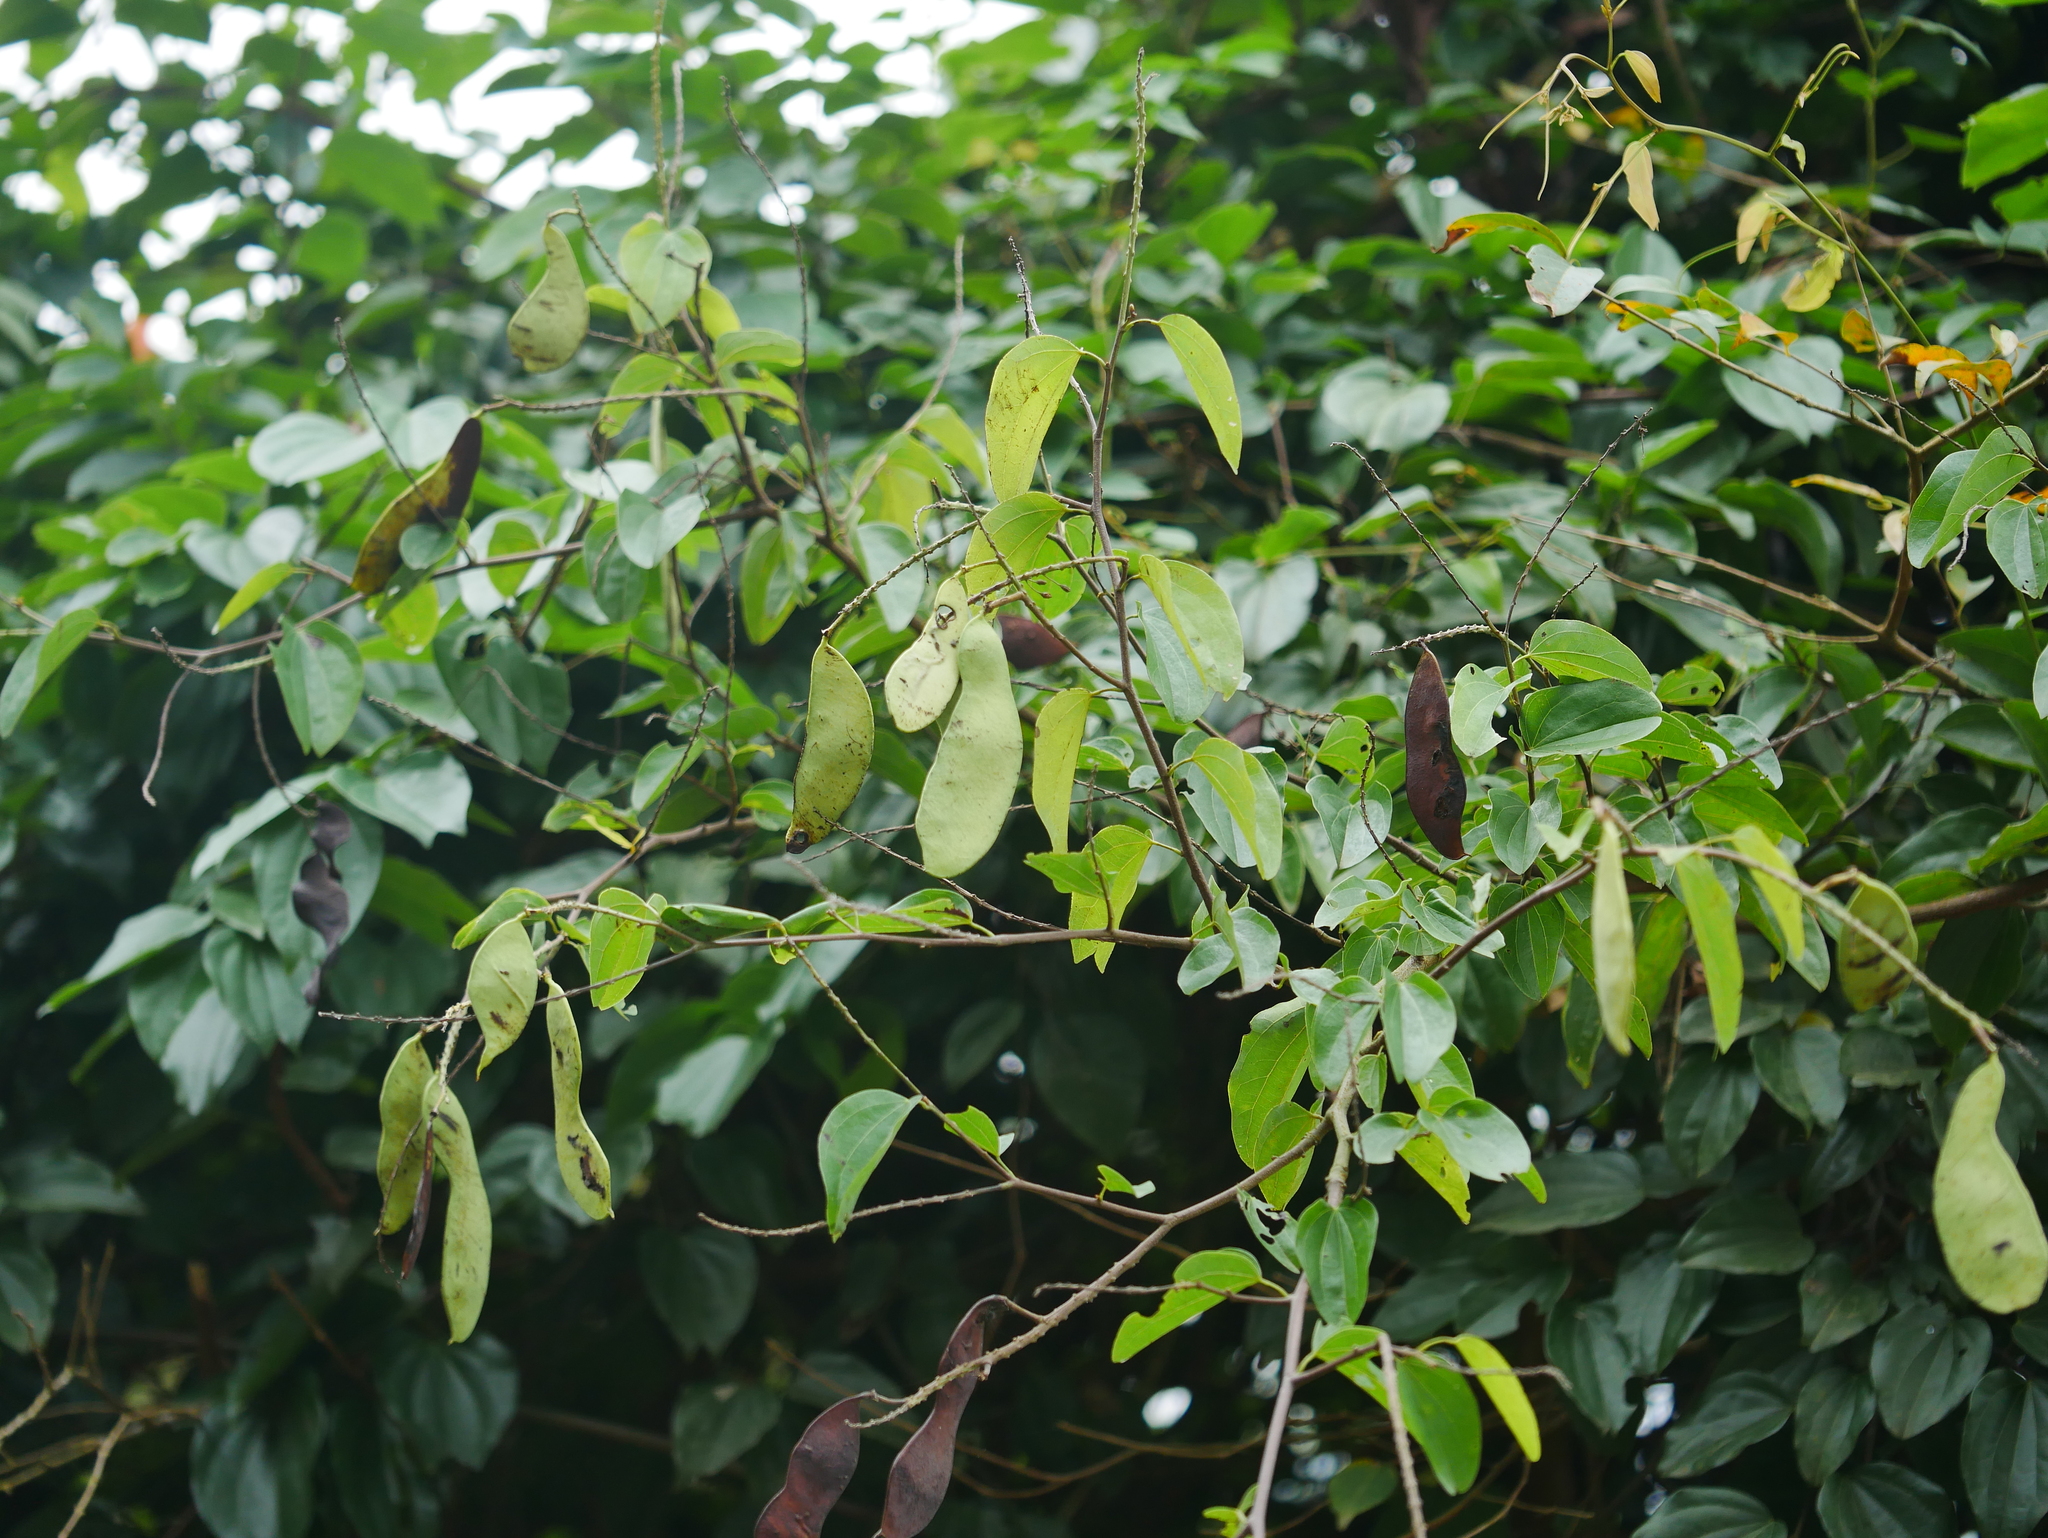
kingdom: Plantae
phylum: Tracheophyta
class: Magnoliopsida
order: Fabales
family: Fabaceae
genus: Phanera
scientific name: Phanera championii
